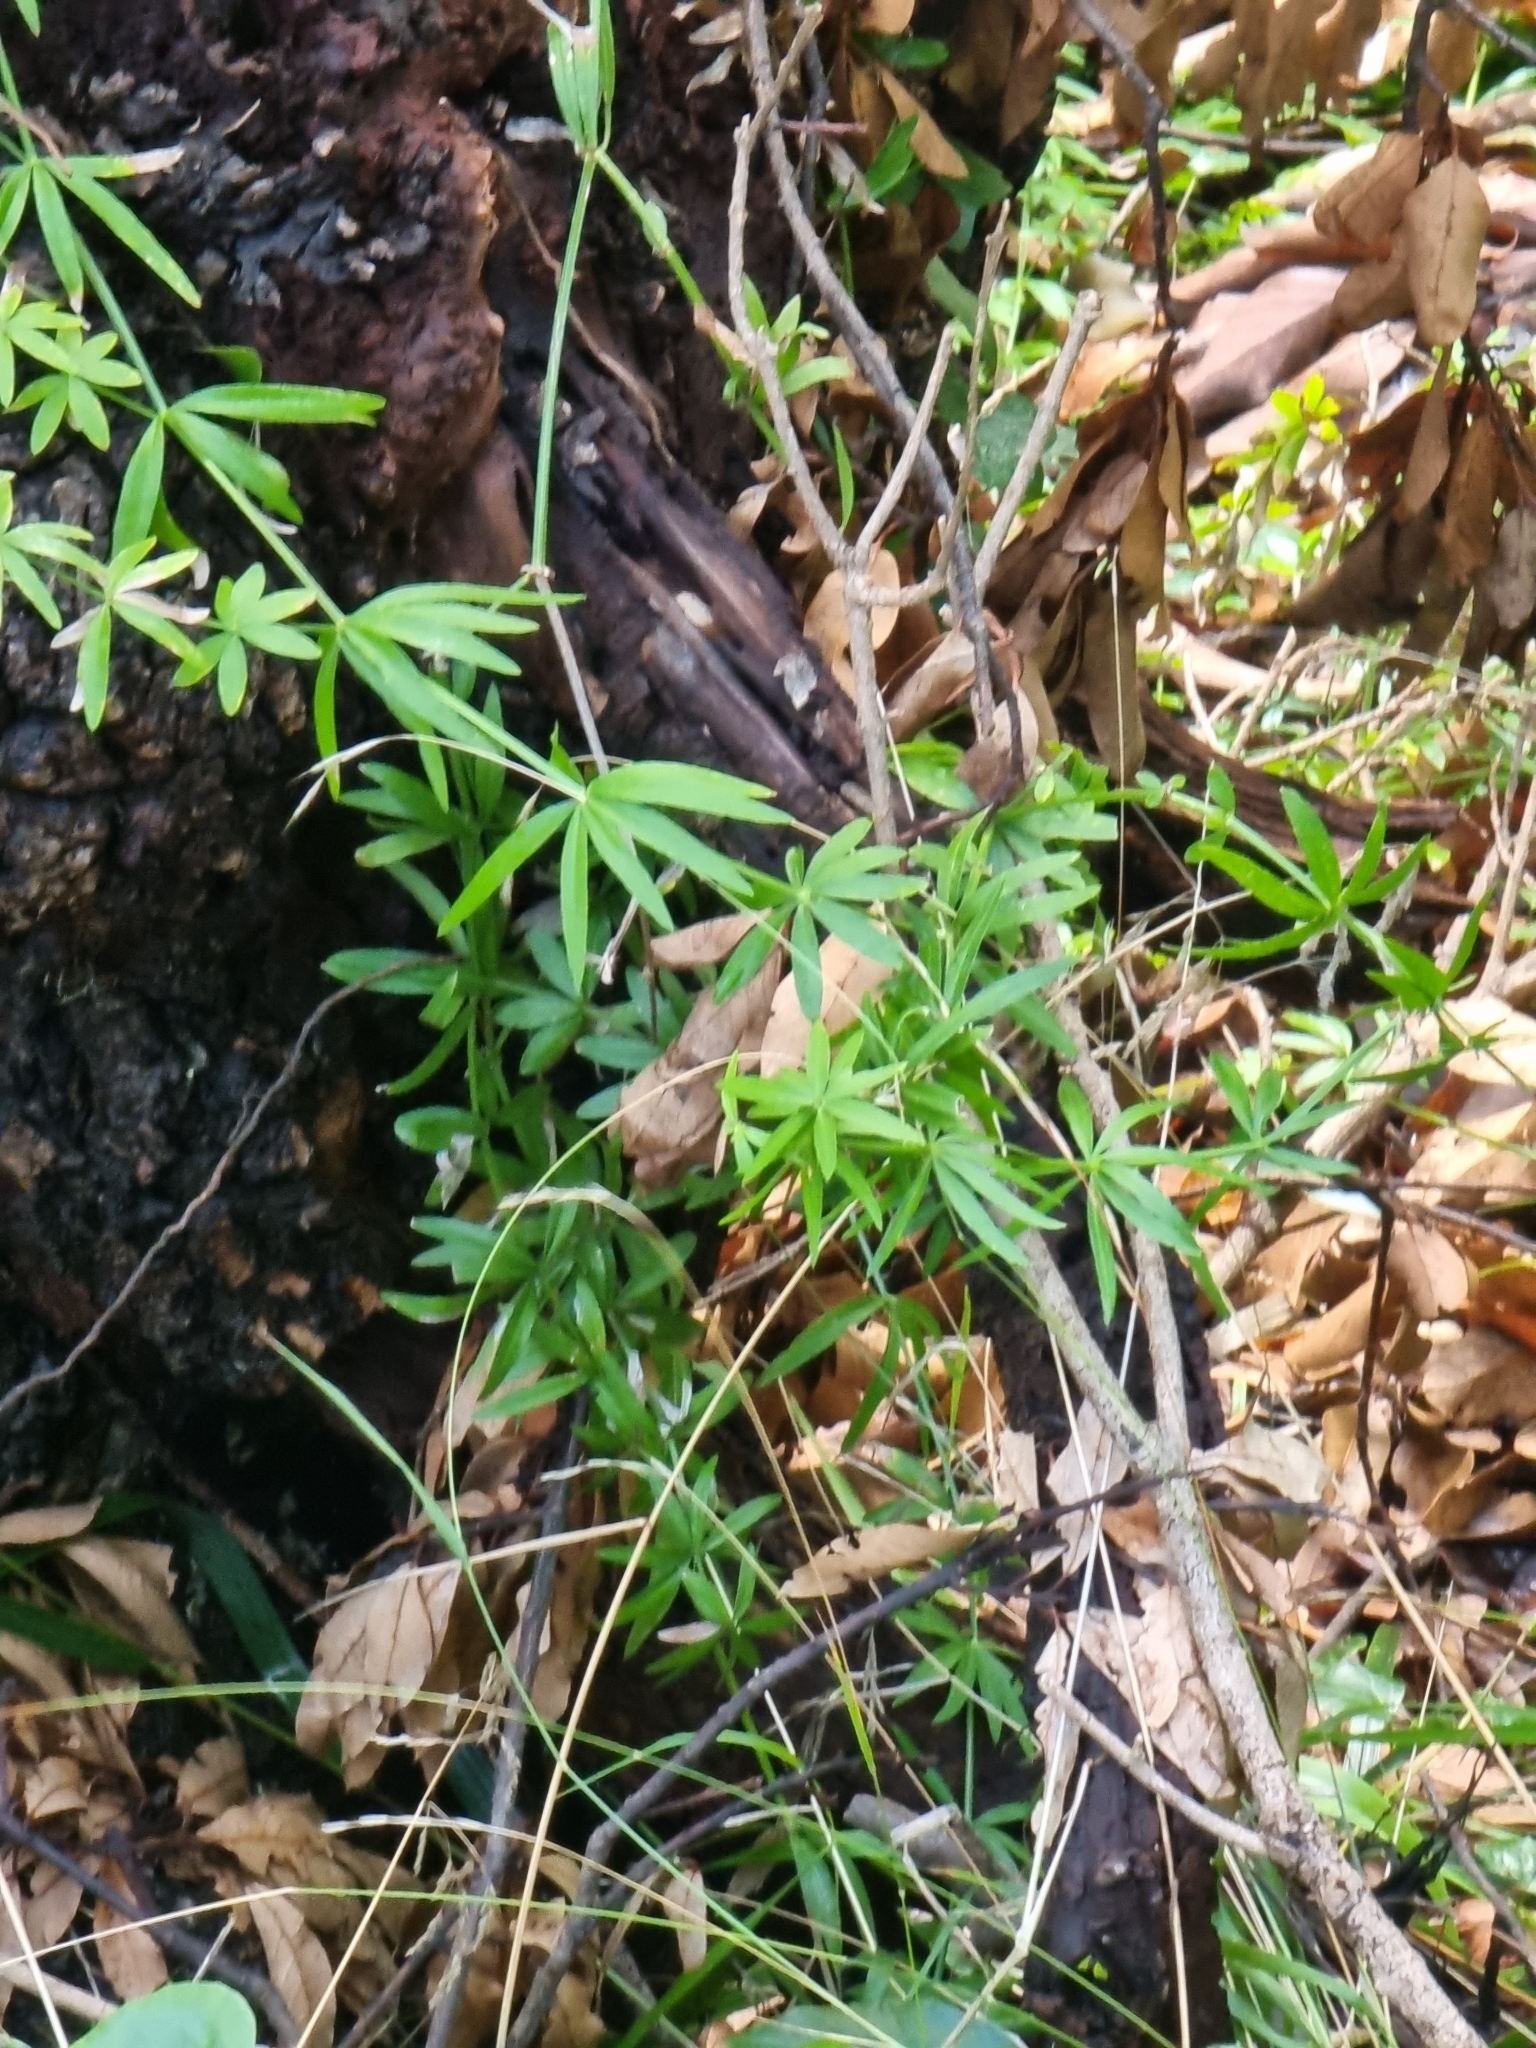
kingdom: Plantae
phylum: Tracheophyta
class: Magnoliopsida
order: Gentianales
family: Rubiaceae
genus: Rubia
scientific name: Rubia occidens
